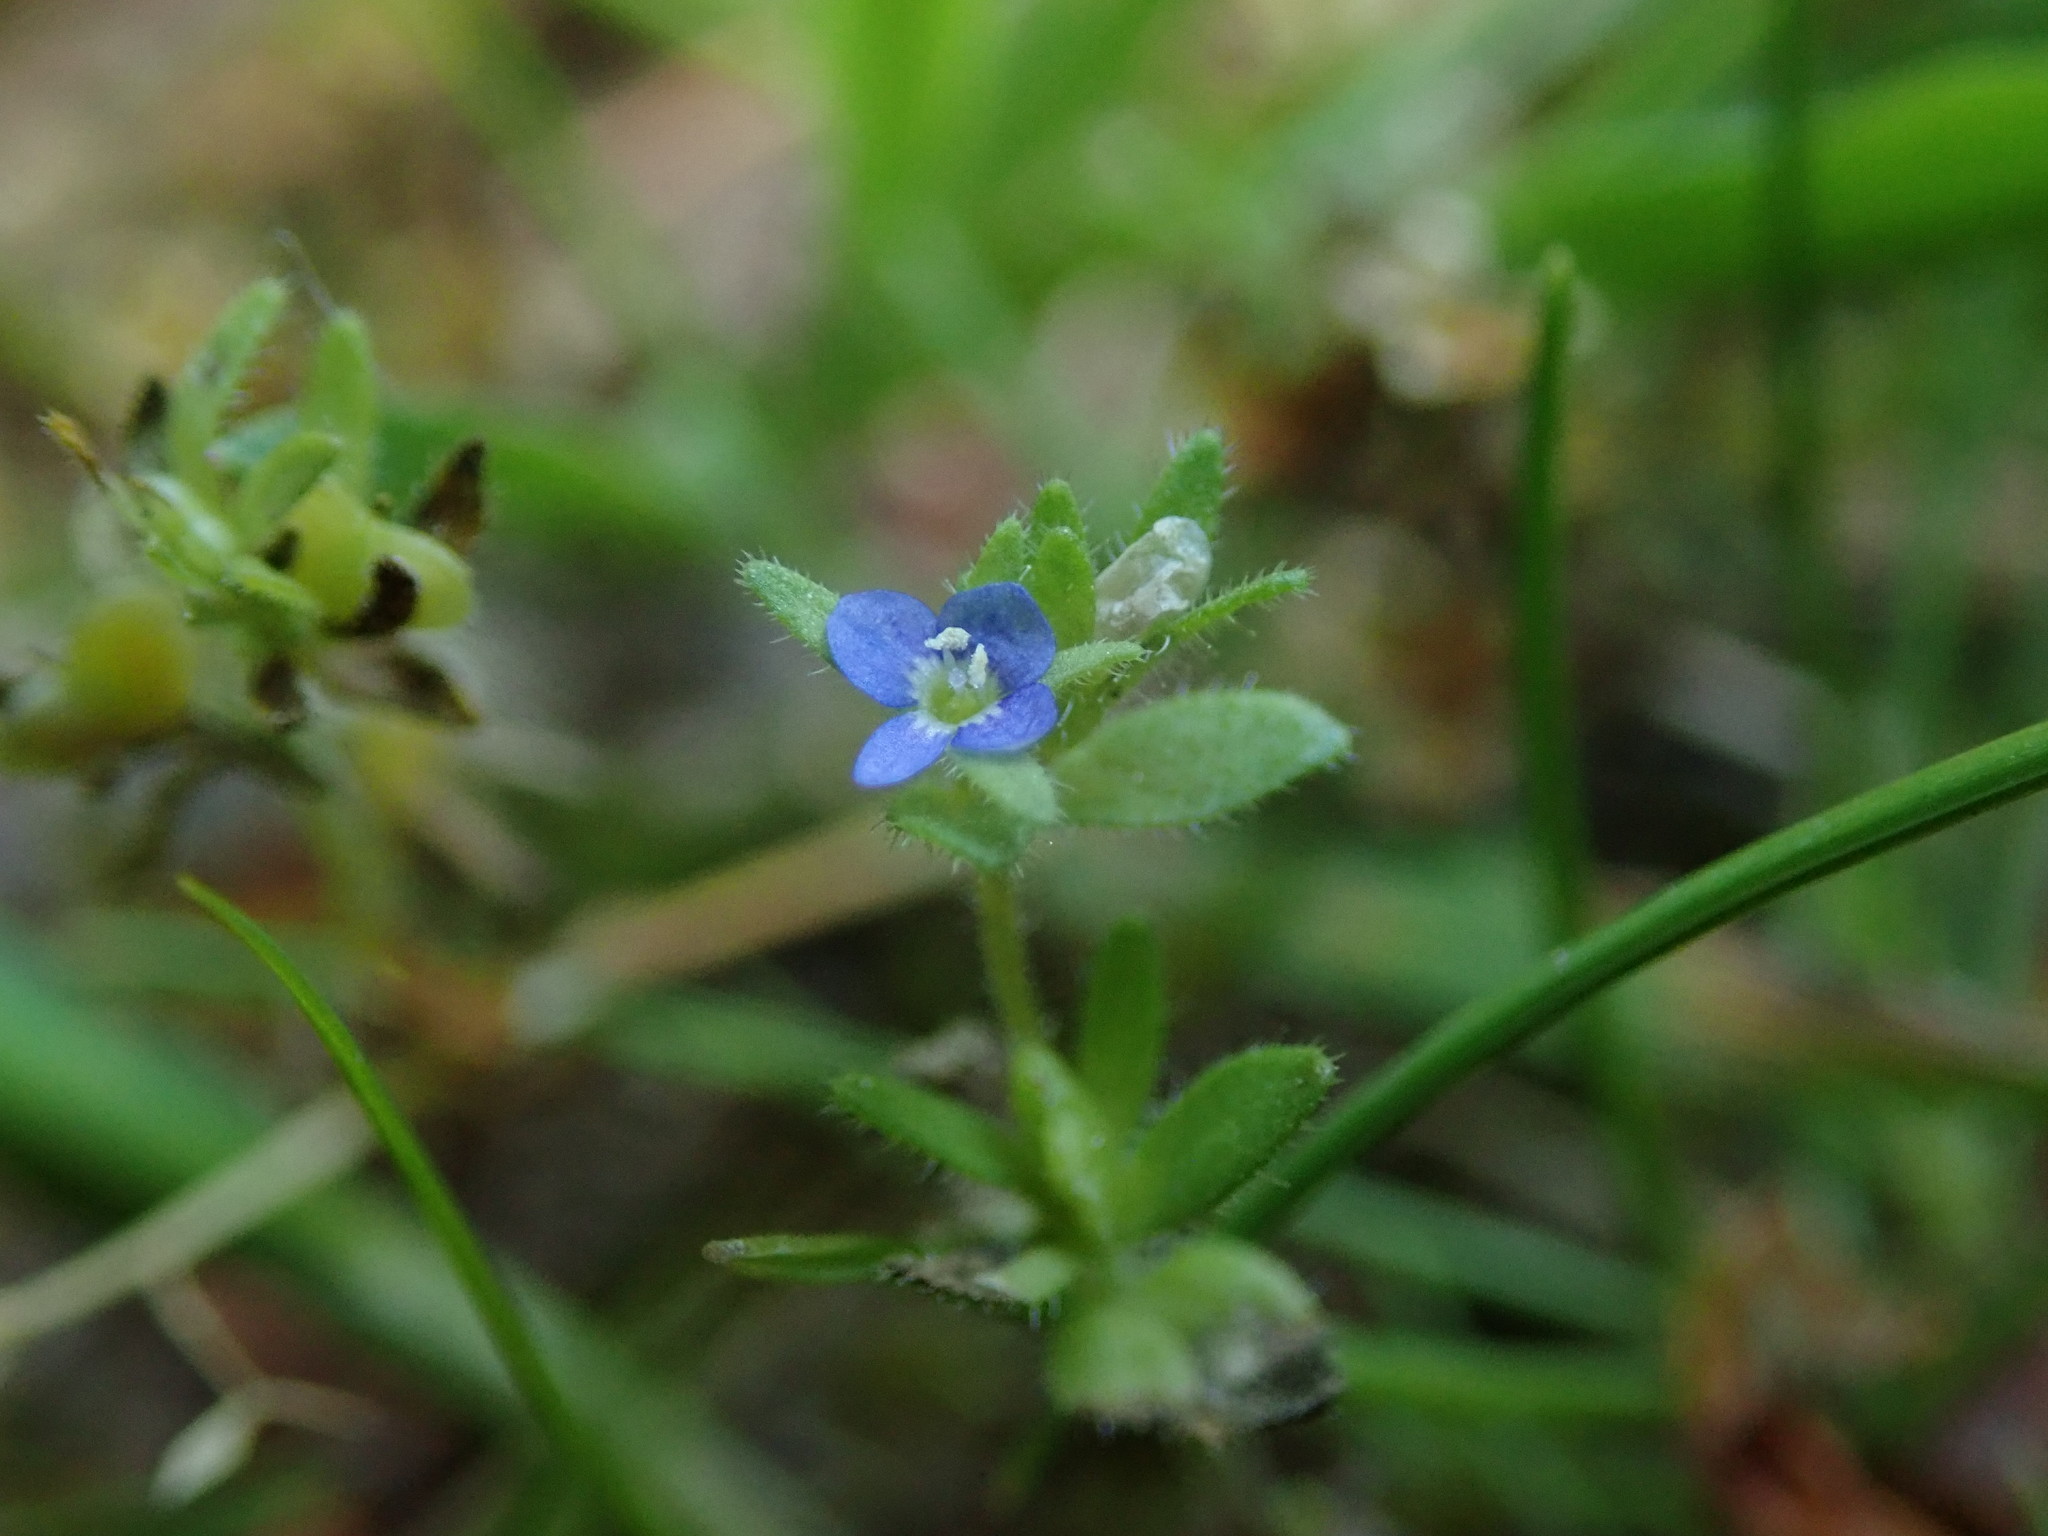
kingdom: Plantae
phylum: Tracheophyta
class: Magnoliopsida
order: Lamiales
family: Plantaginaceae
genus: Veronica
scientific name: Veronica arvensis
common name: Corn speedwell
